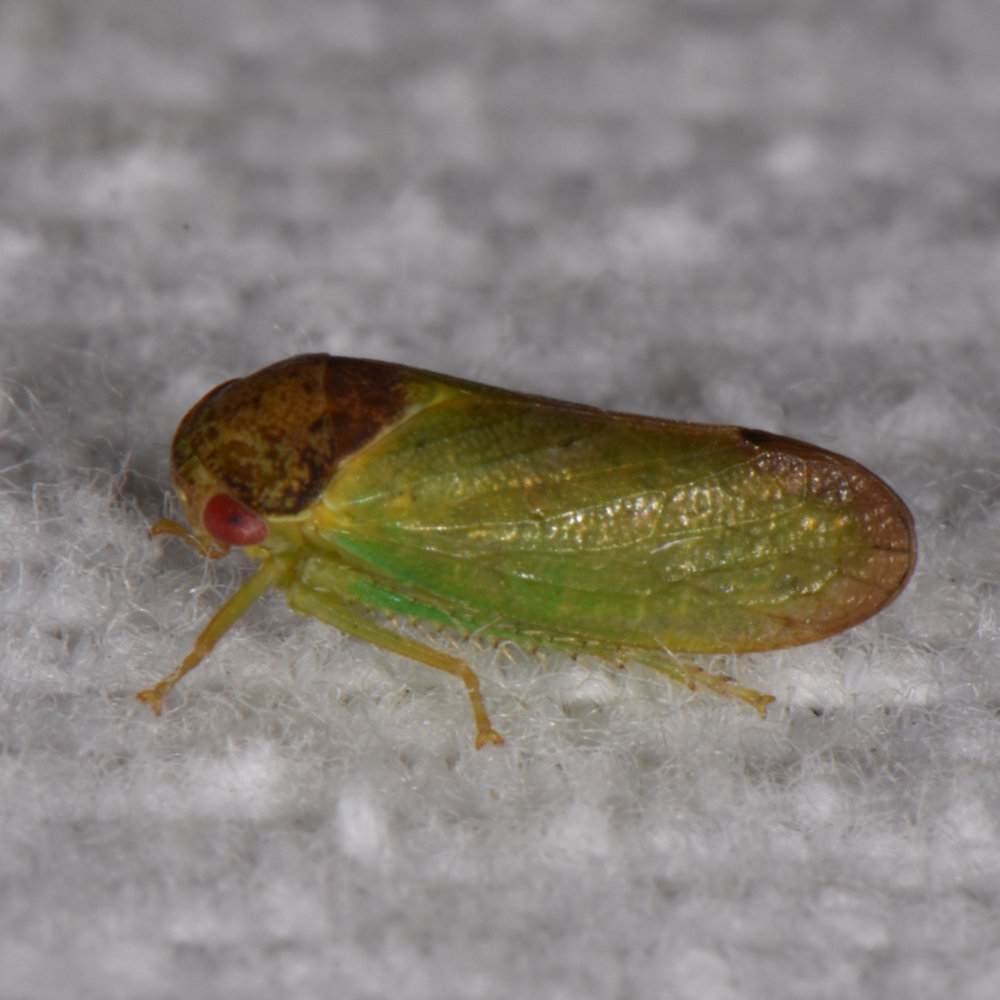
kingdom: Animalia
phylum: Arthropoda
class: Insecta
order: Hemiptera
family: Cicadellidae
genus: Iassus
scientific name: Iassus lanio
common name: Leafhopper
